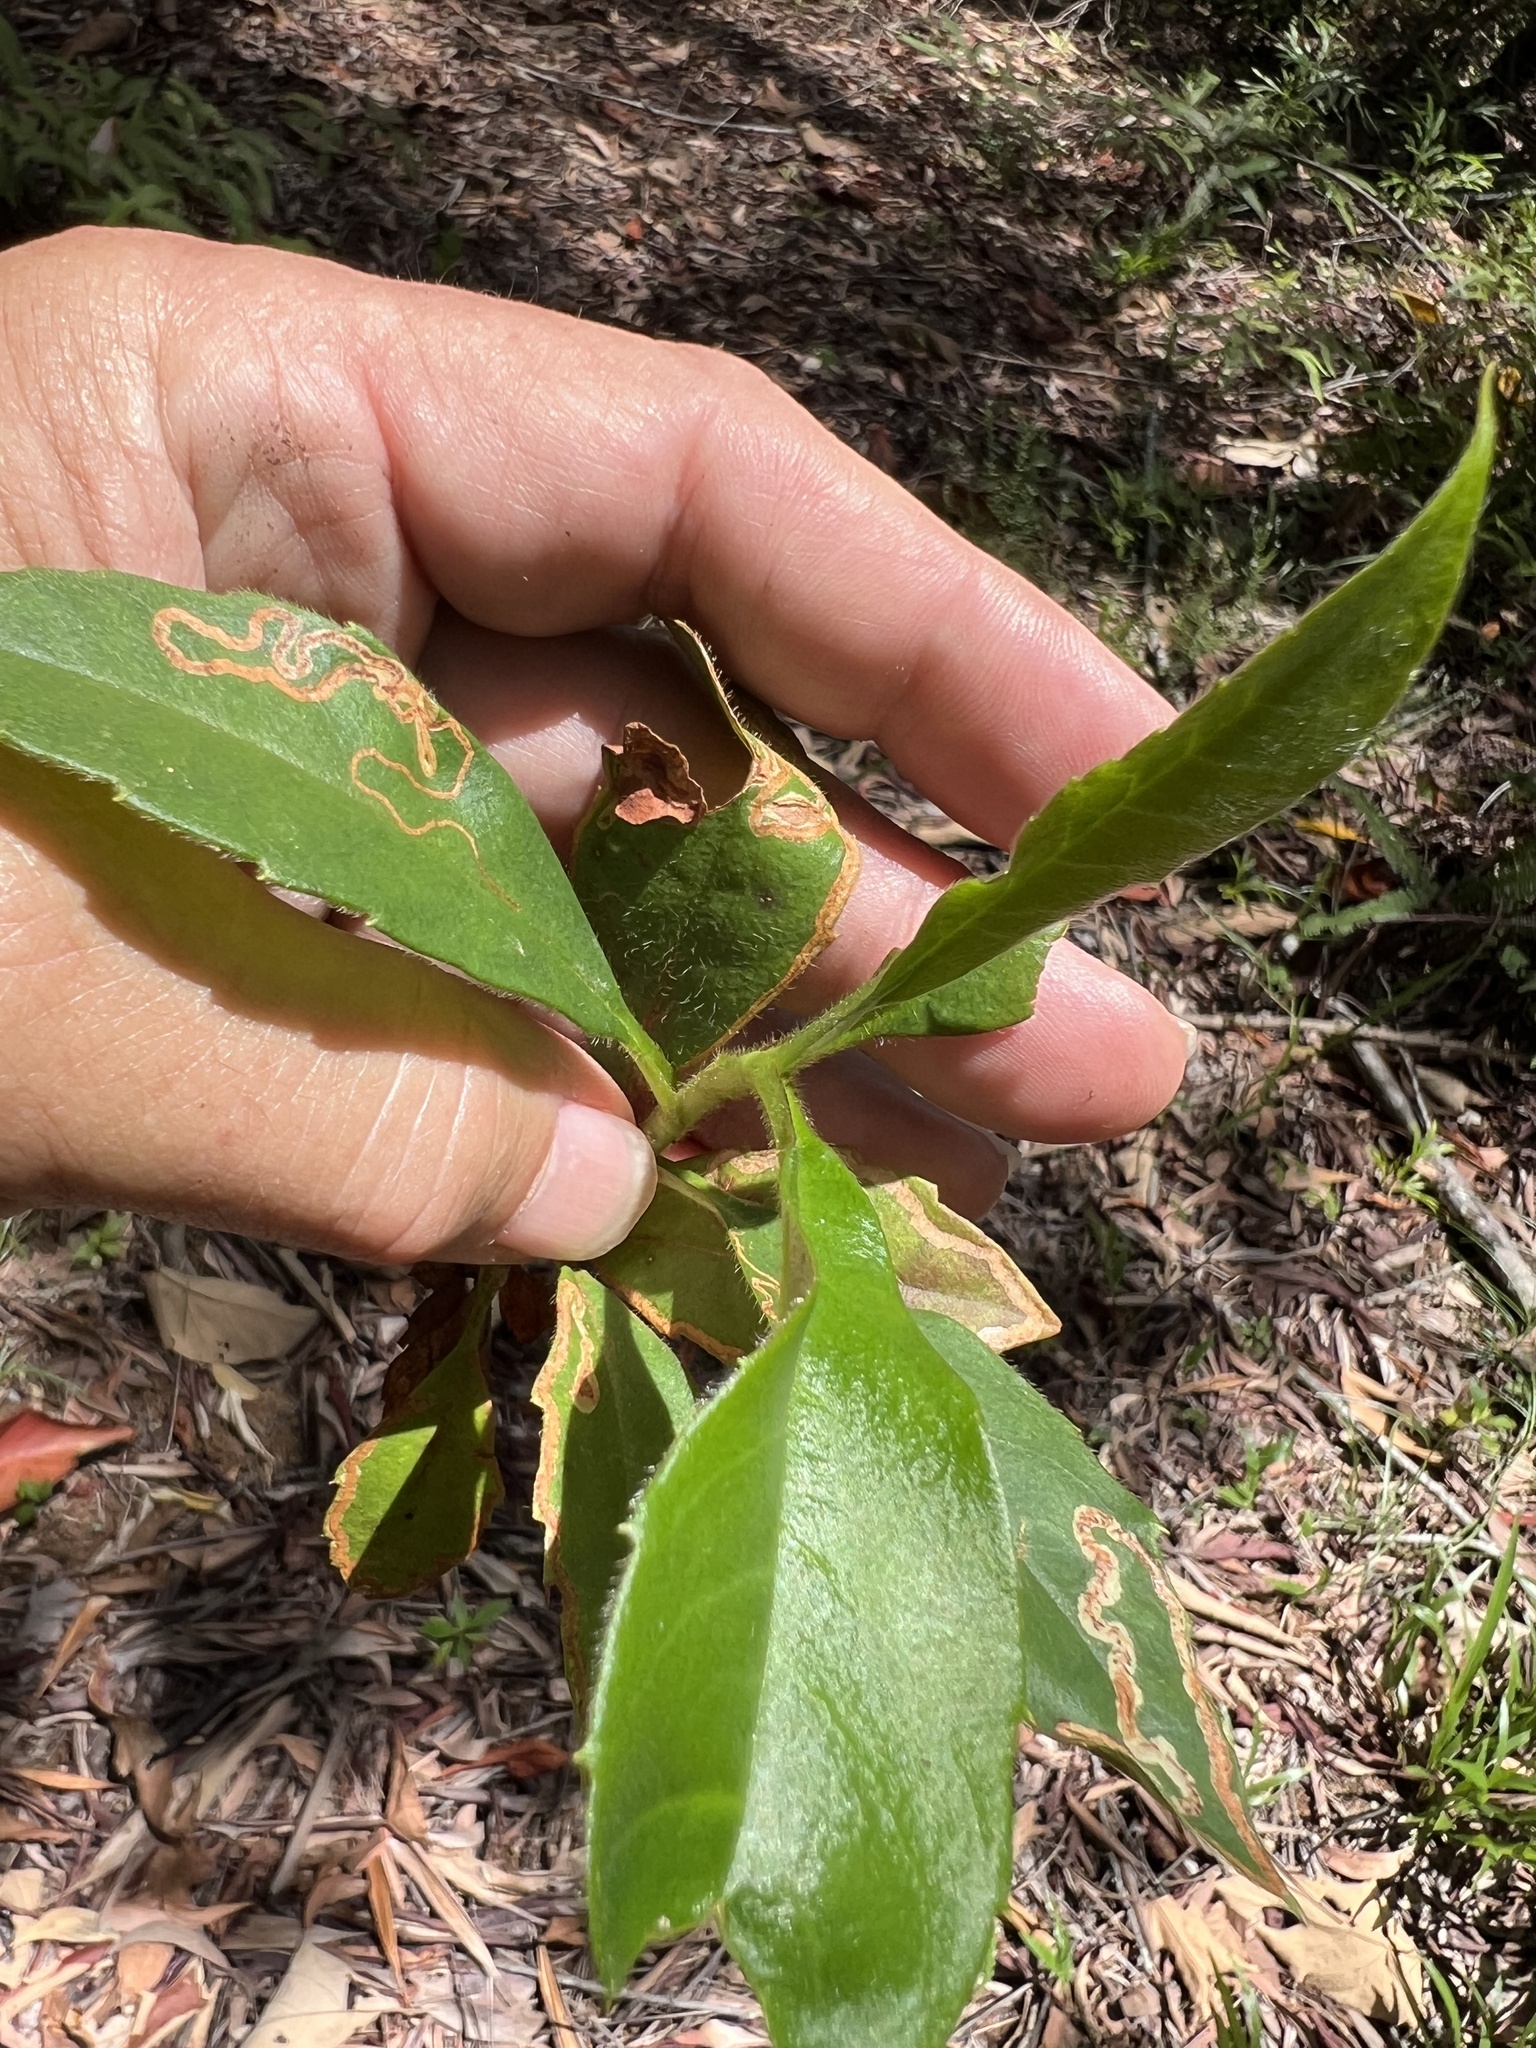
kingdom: Plantae
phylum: Tracheophyta
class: Magnoliopsida
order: Dilleniales
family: Dilleniaceae
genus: Hibbertia
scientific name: Hibbertia scandens
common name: Climbing guinea-flower
